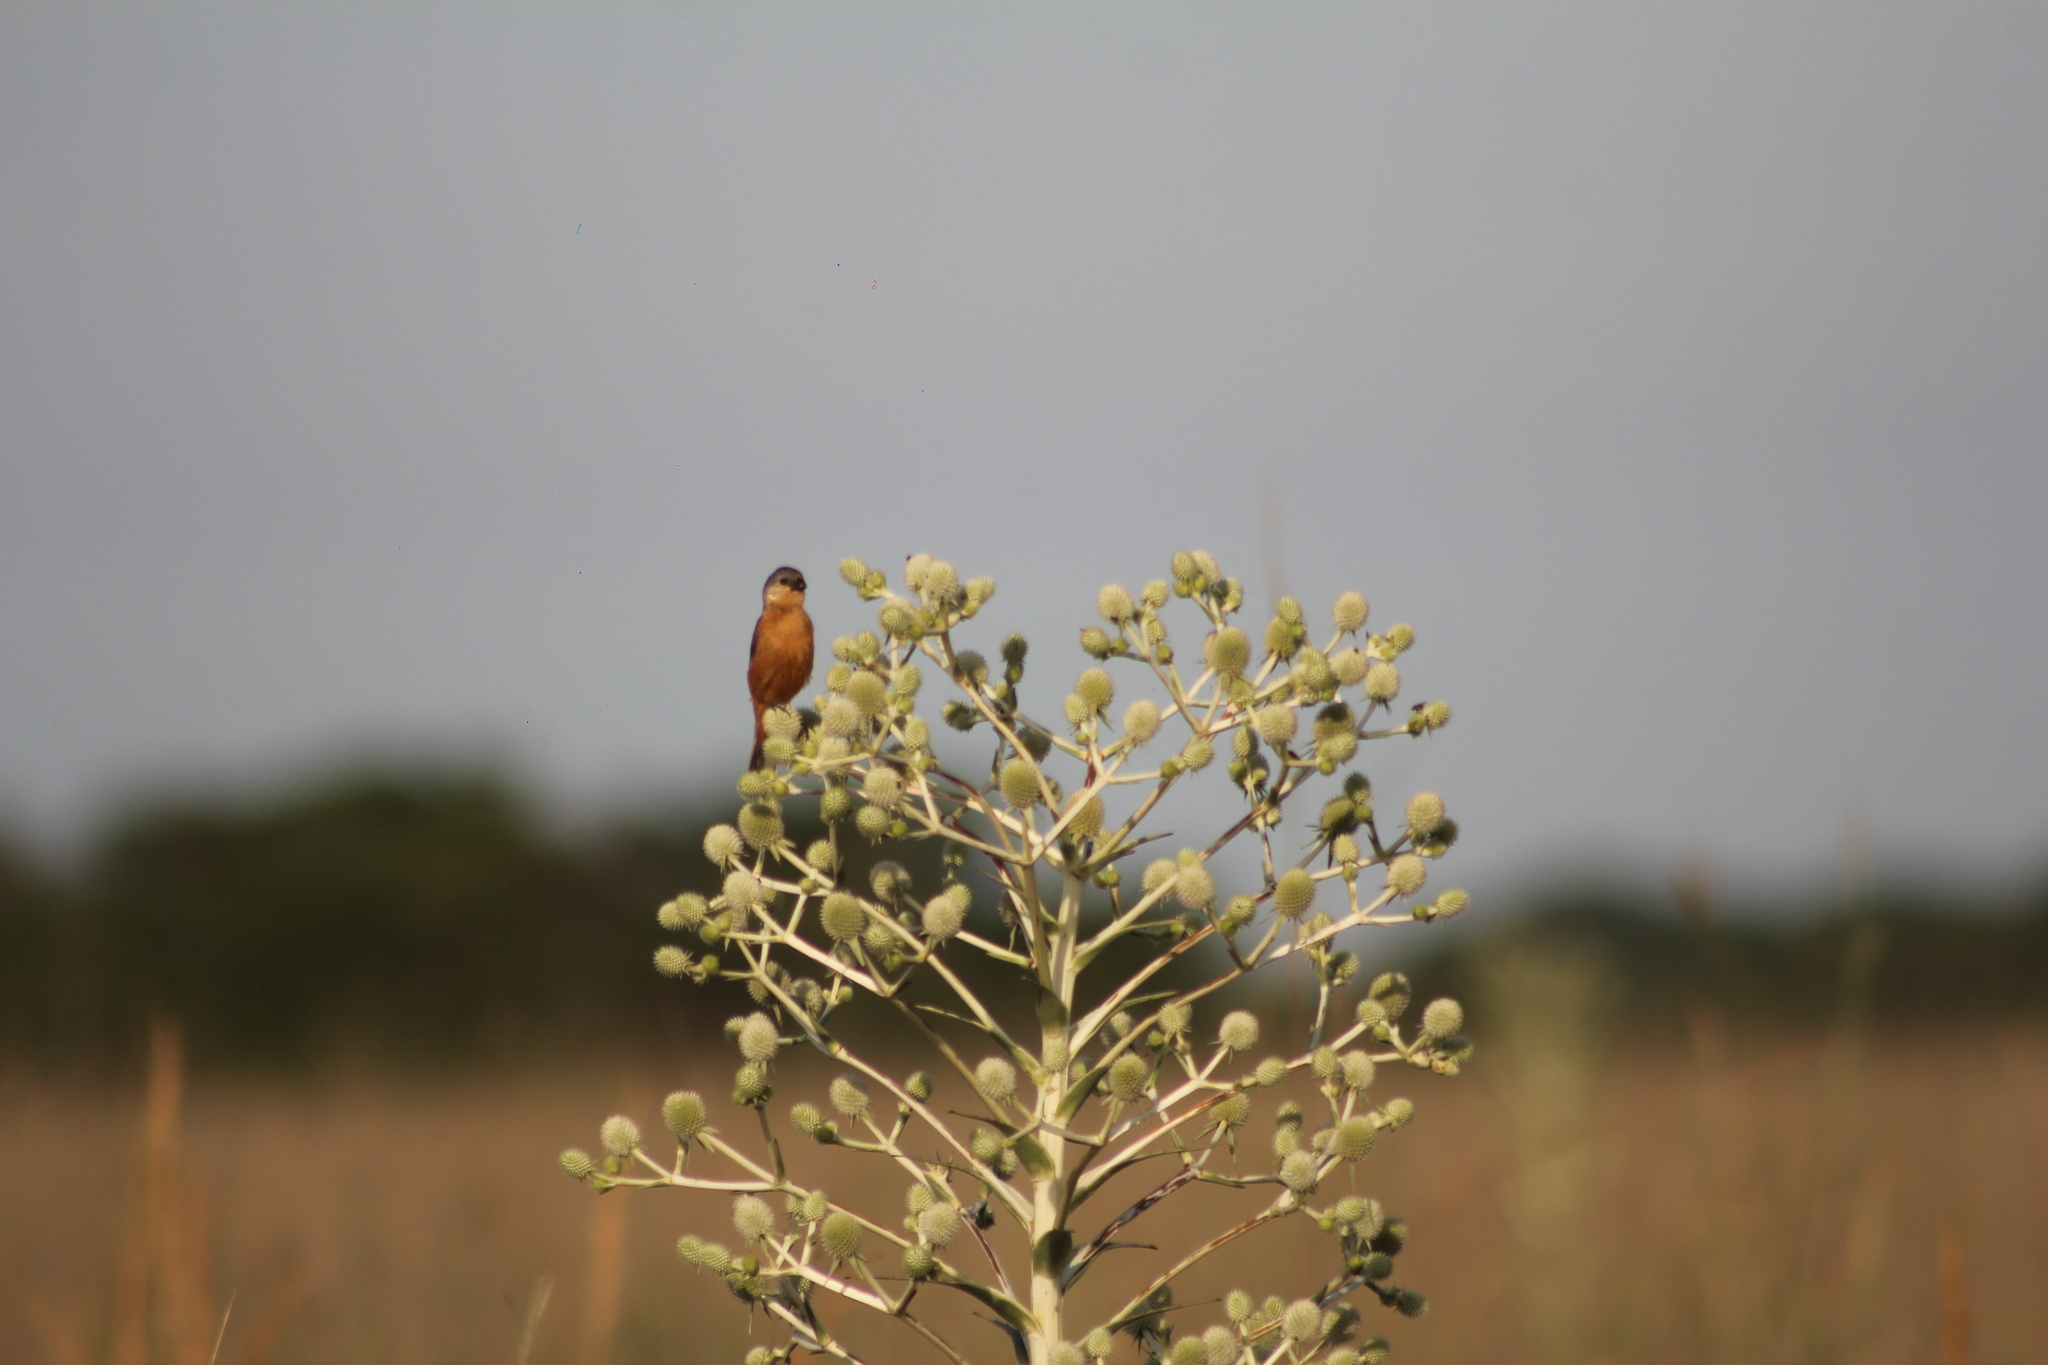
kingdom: Animalia
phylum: Chordata
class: Aves
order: Passeriformes
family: Thraupidae
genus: Sporophila
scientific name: Sporophila hypoxantha
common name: Tawny-bellied seedeater
